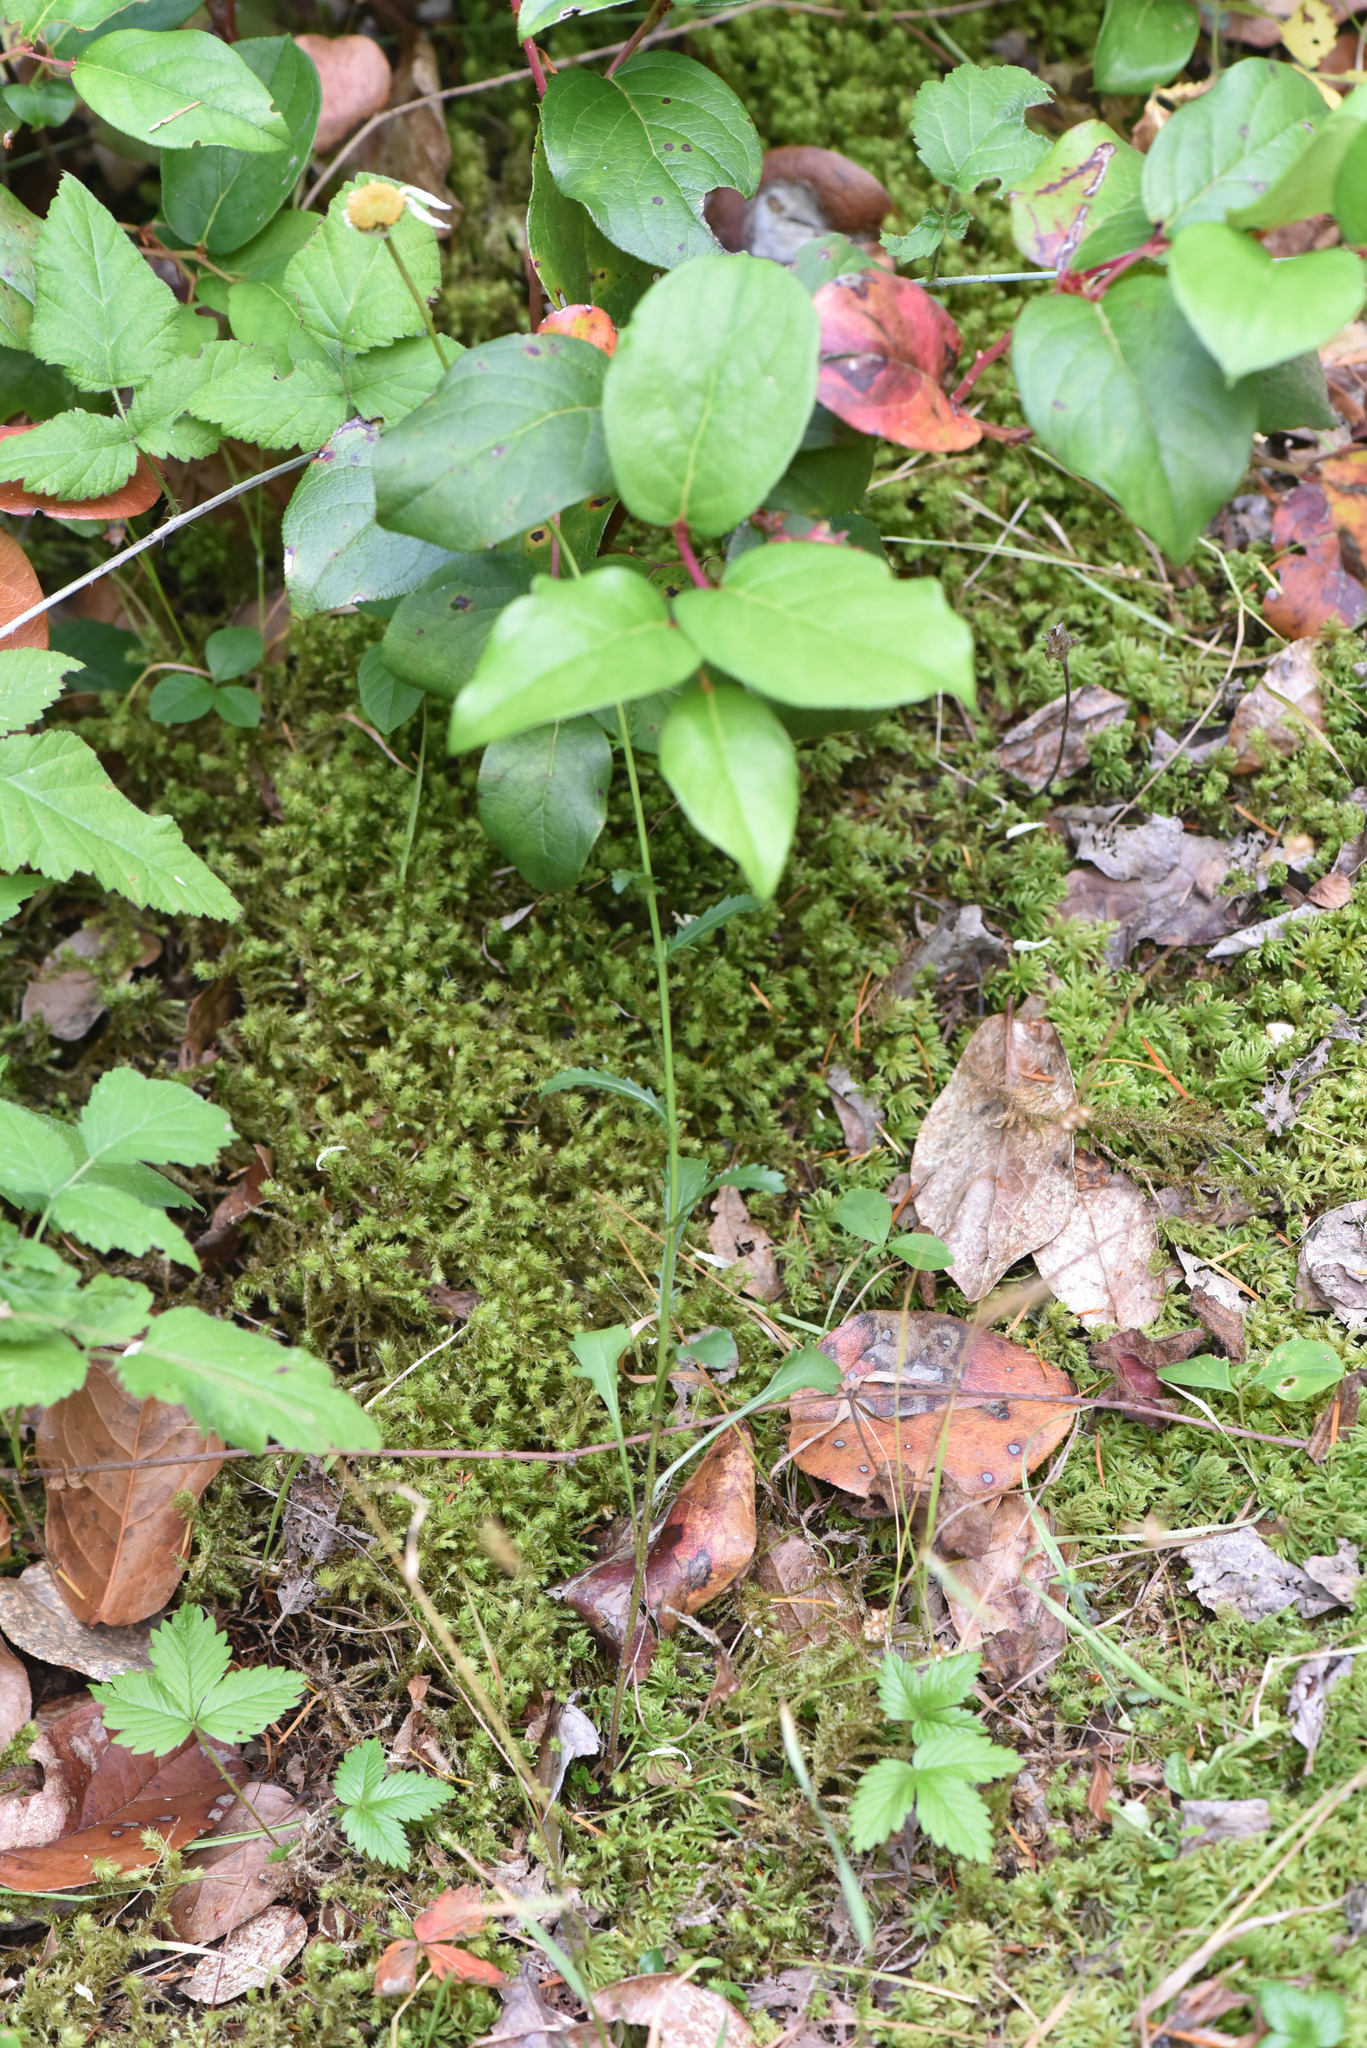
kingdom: Plantae
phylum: Tracheophyta
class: Magnoliopsida
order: Asterales
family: Asteraceae
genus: Leucanthemum
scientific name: Leucanthemum vulgare
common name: Oxeye daisy
